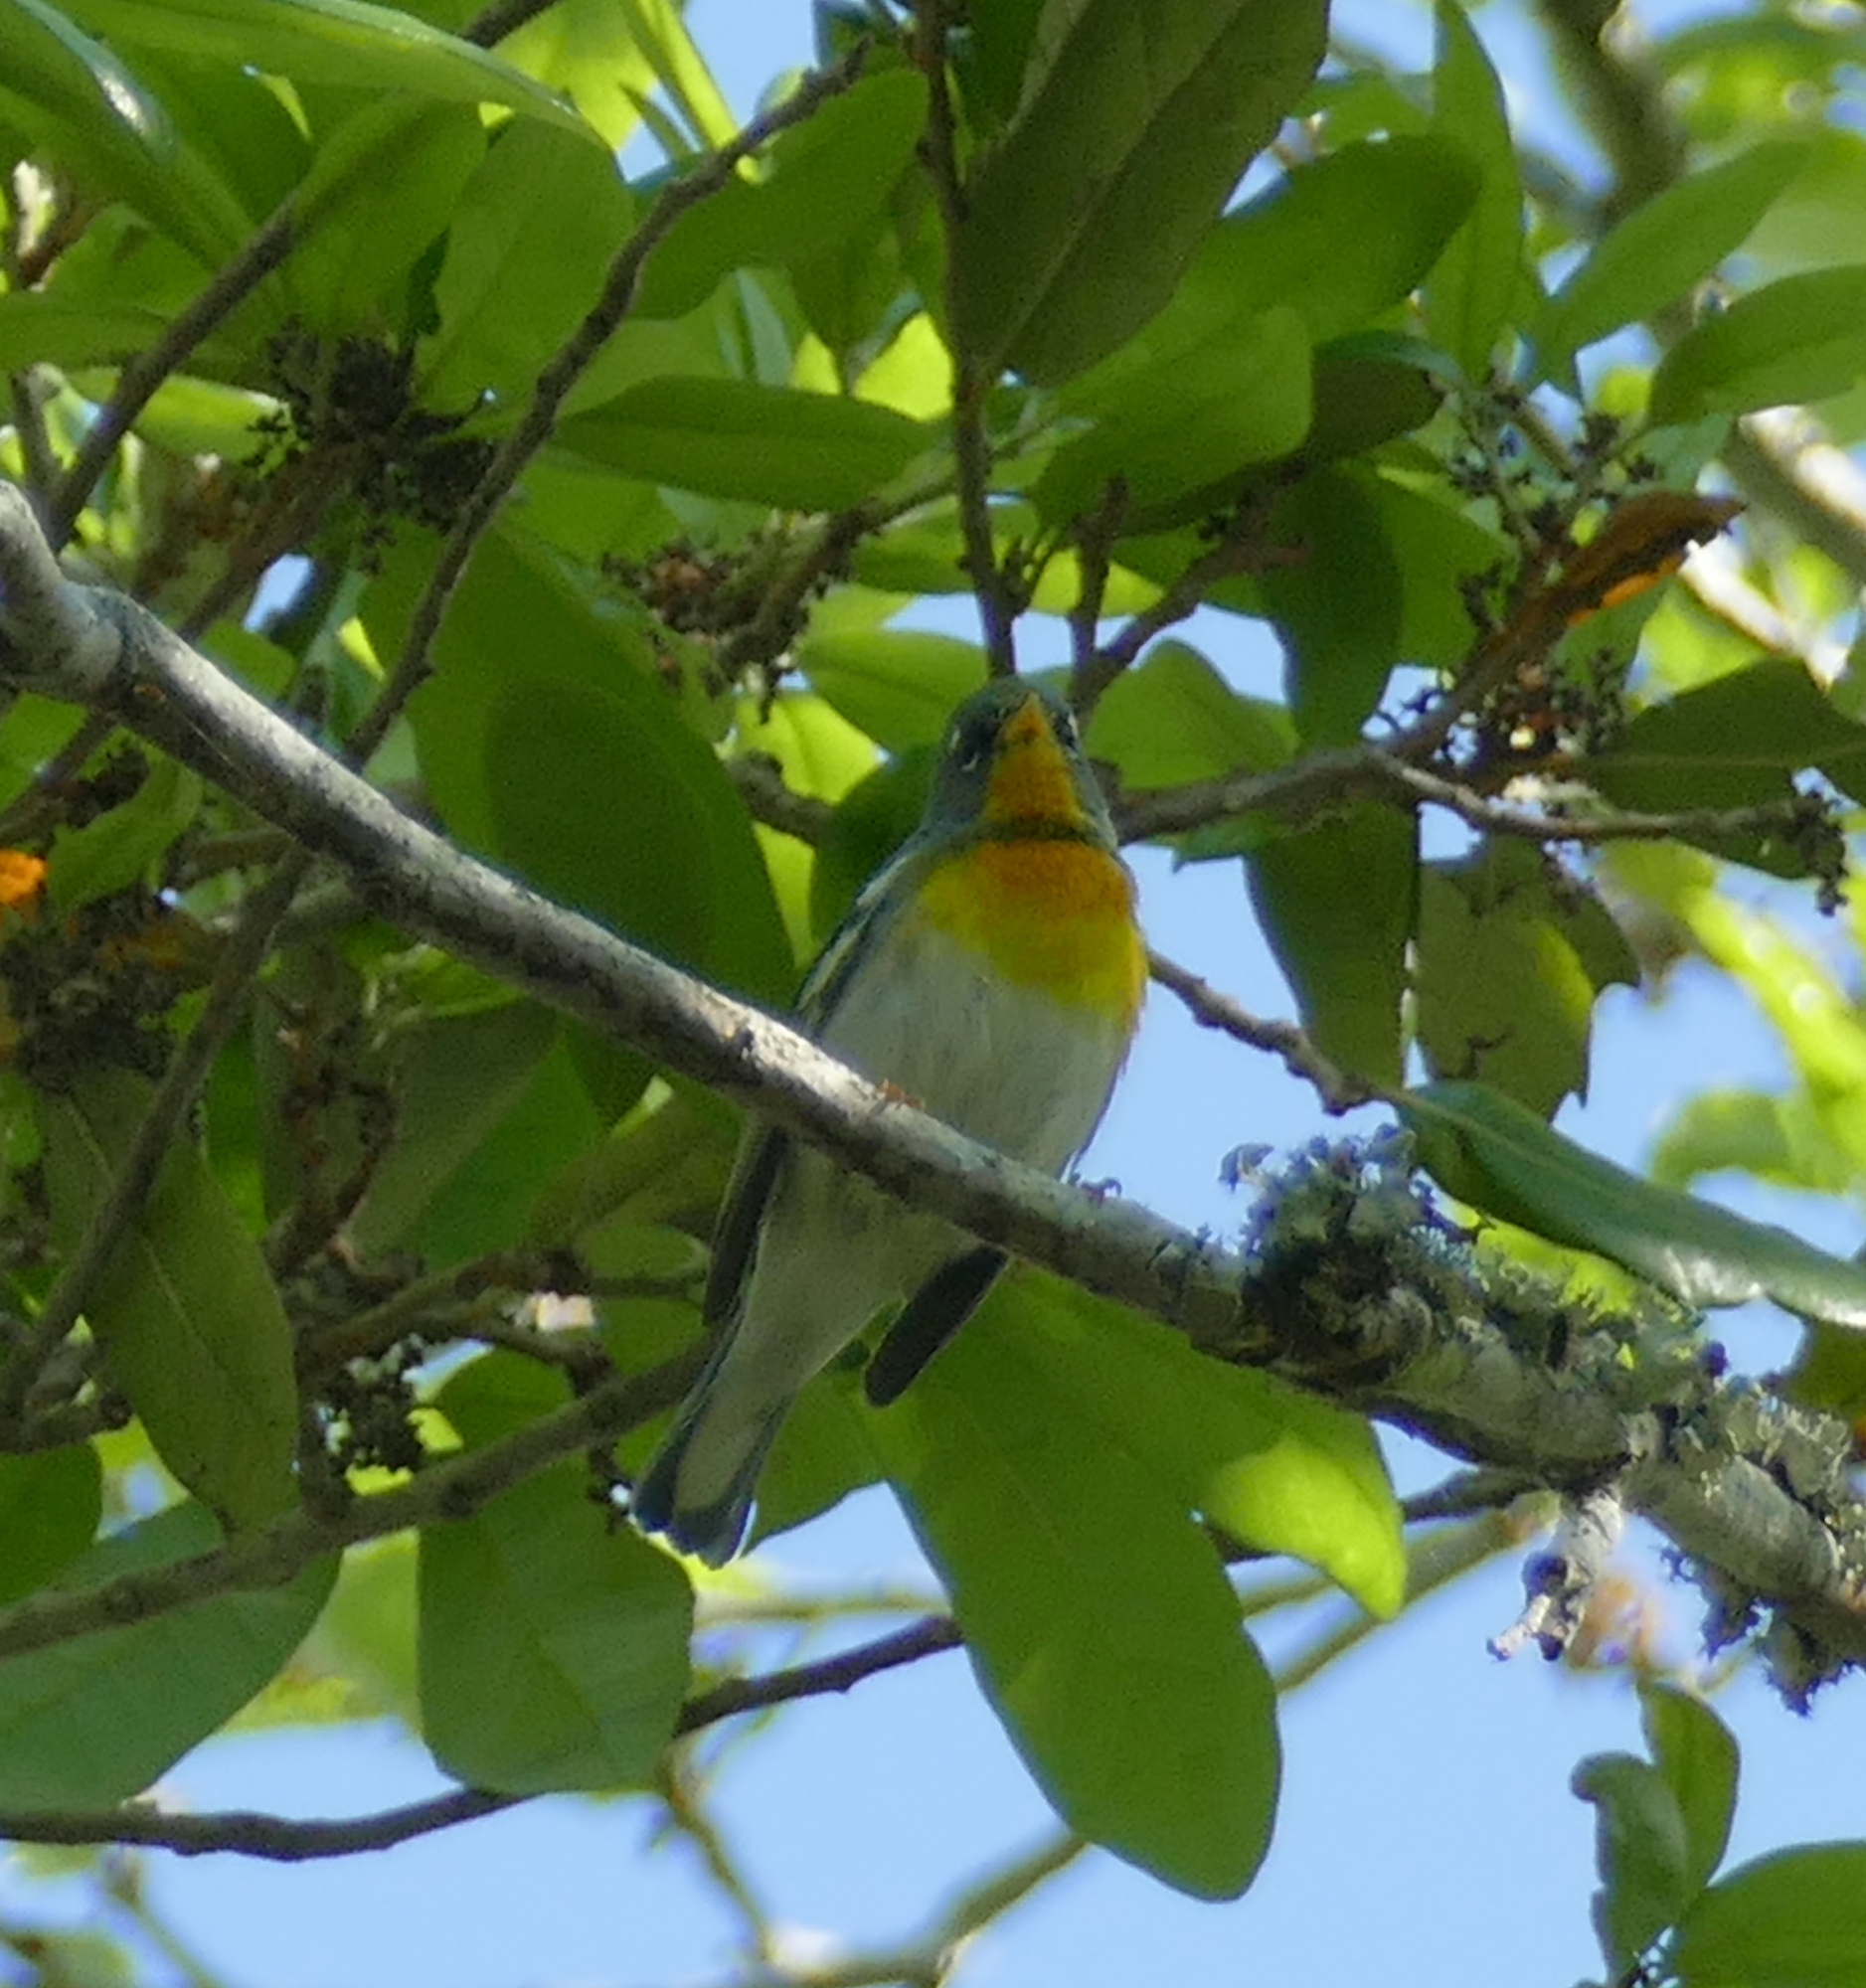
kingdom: Animalia
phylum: Chordata
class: Aves
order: Passeriformes
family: Parulidae
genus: Setophaga
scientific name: Setophaga americana
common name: Northern parula
